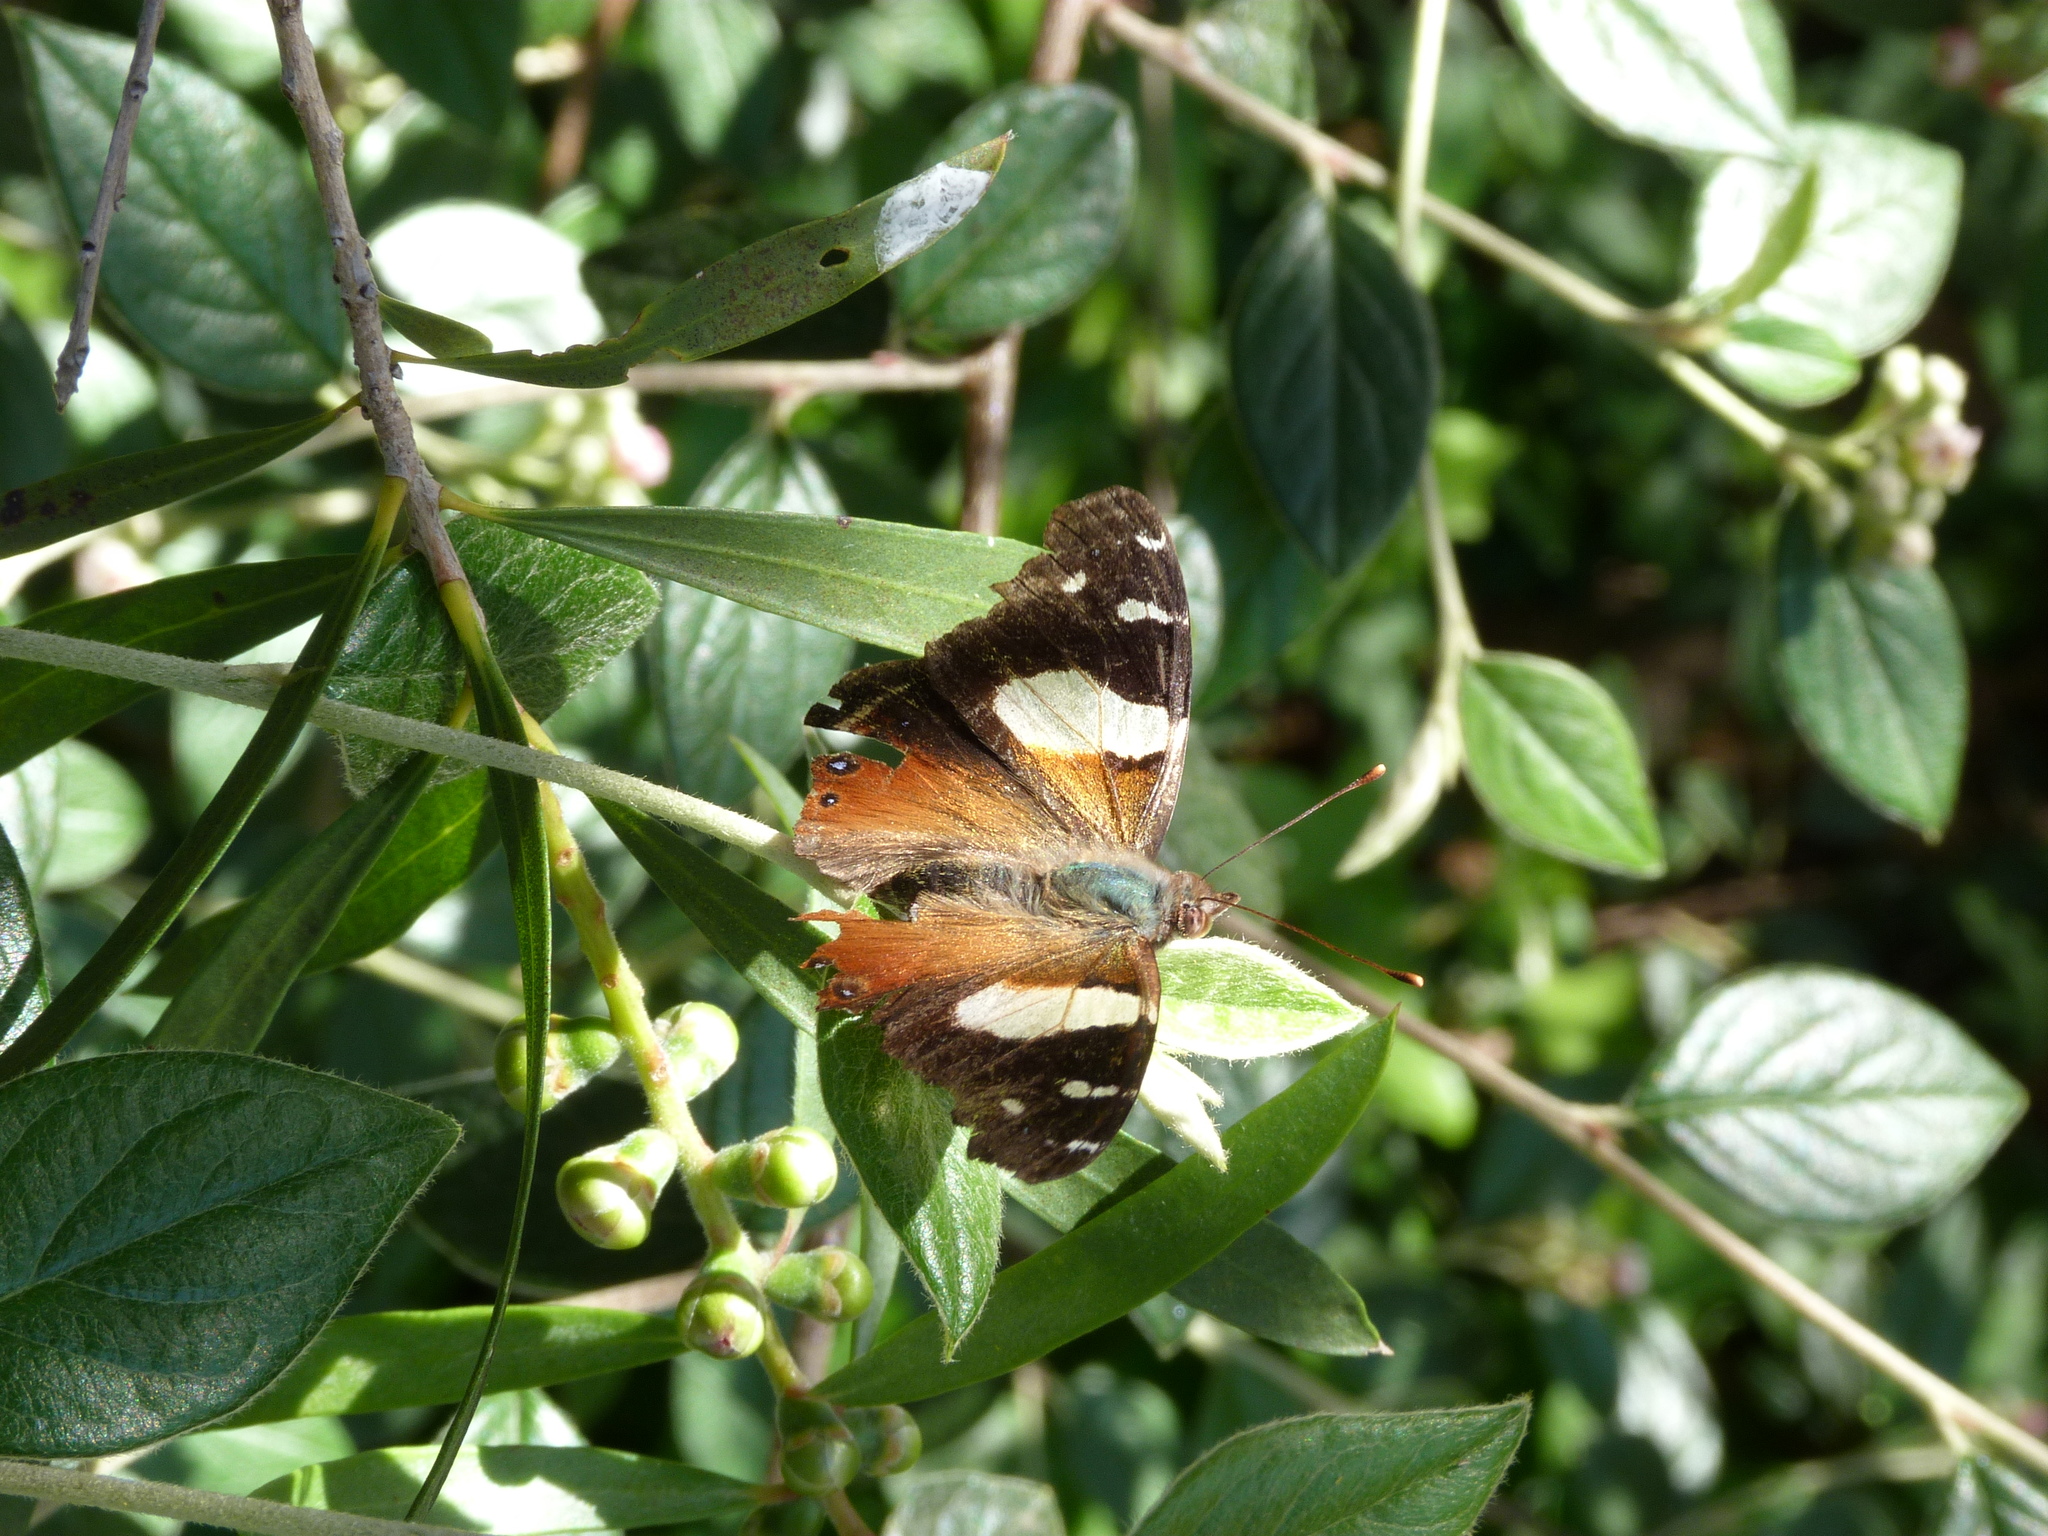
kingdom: Animalia
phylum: Arthropoda
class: Insecta
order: Lepidoptera
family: Nymphalidae
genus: Vanessa
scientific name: Vanessa itea
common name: Yellow admiral
